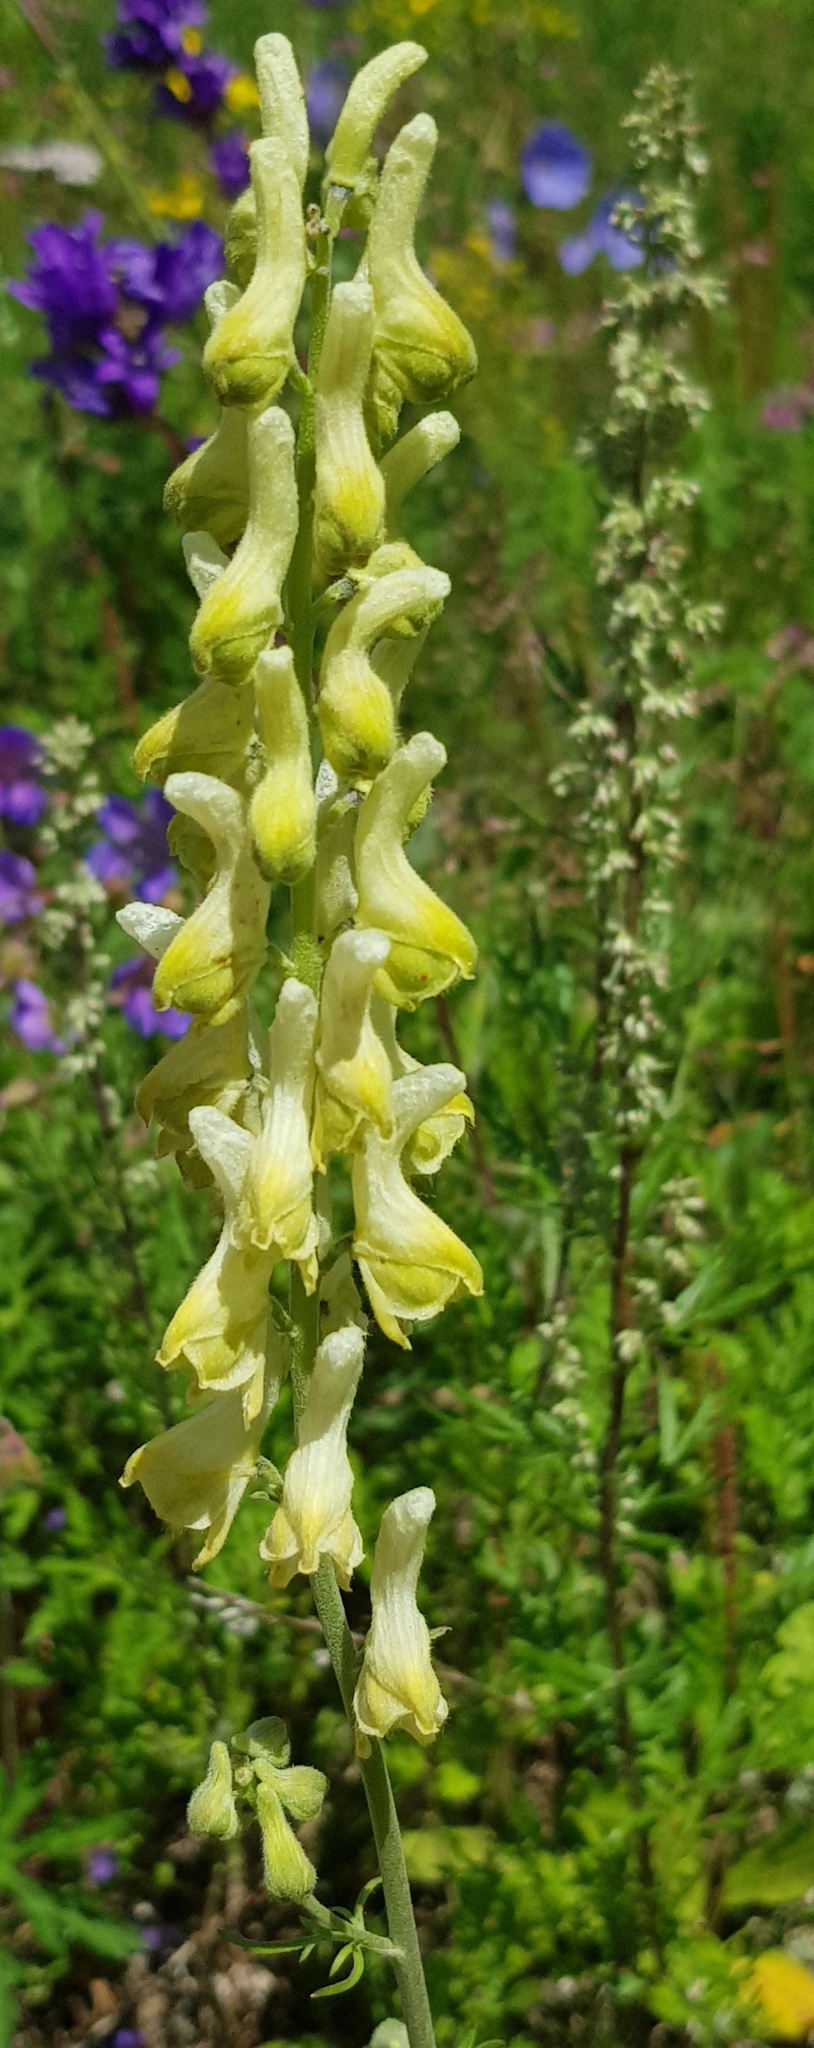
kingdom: Plantae
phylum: Tracheophyta
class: Magnoliopsida
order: Ranunculales
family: Ranunculaceae
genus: Aconitum
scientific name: Aconitum barbatum
